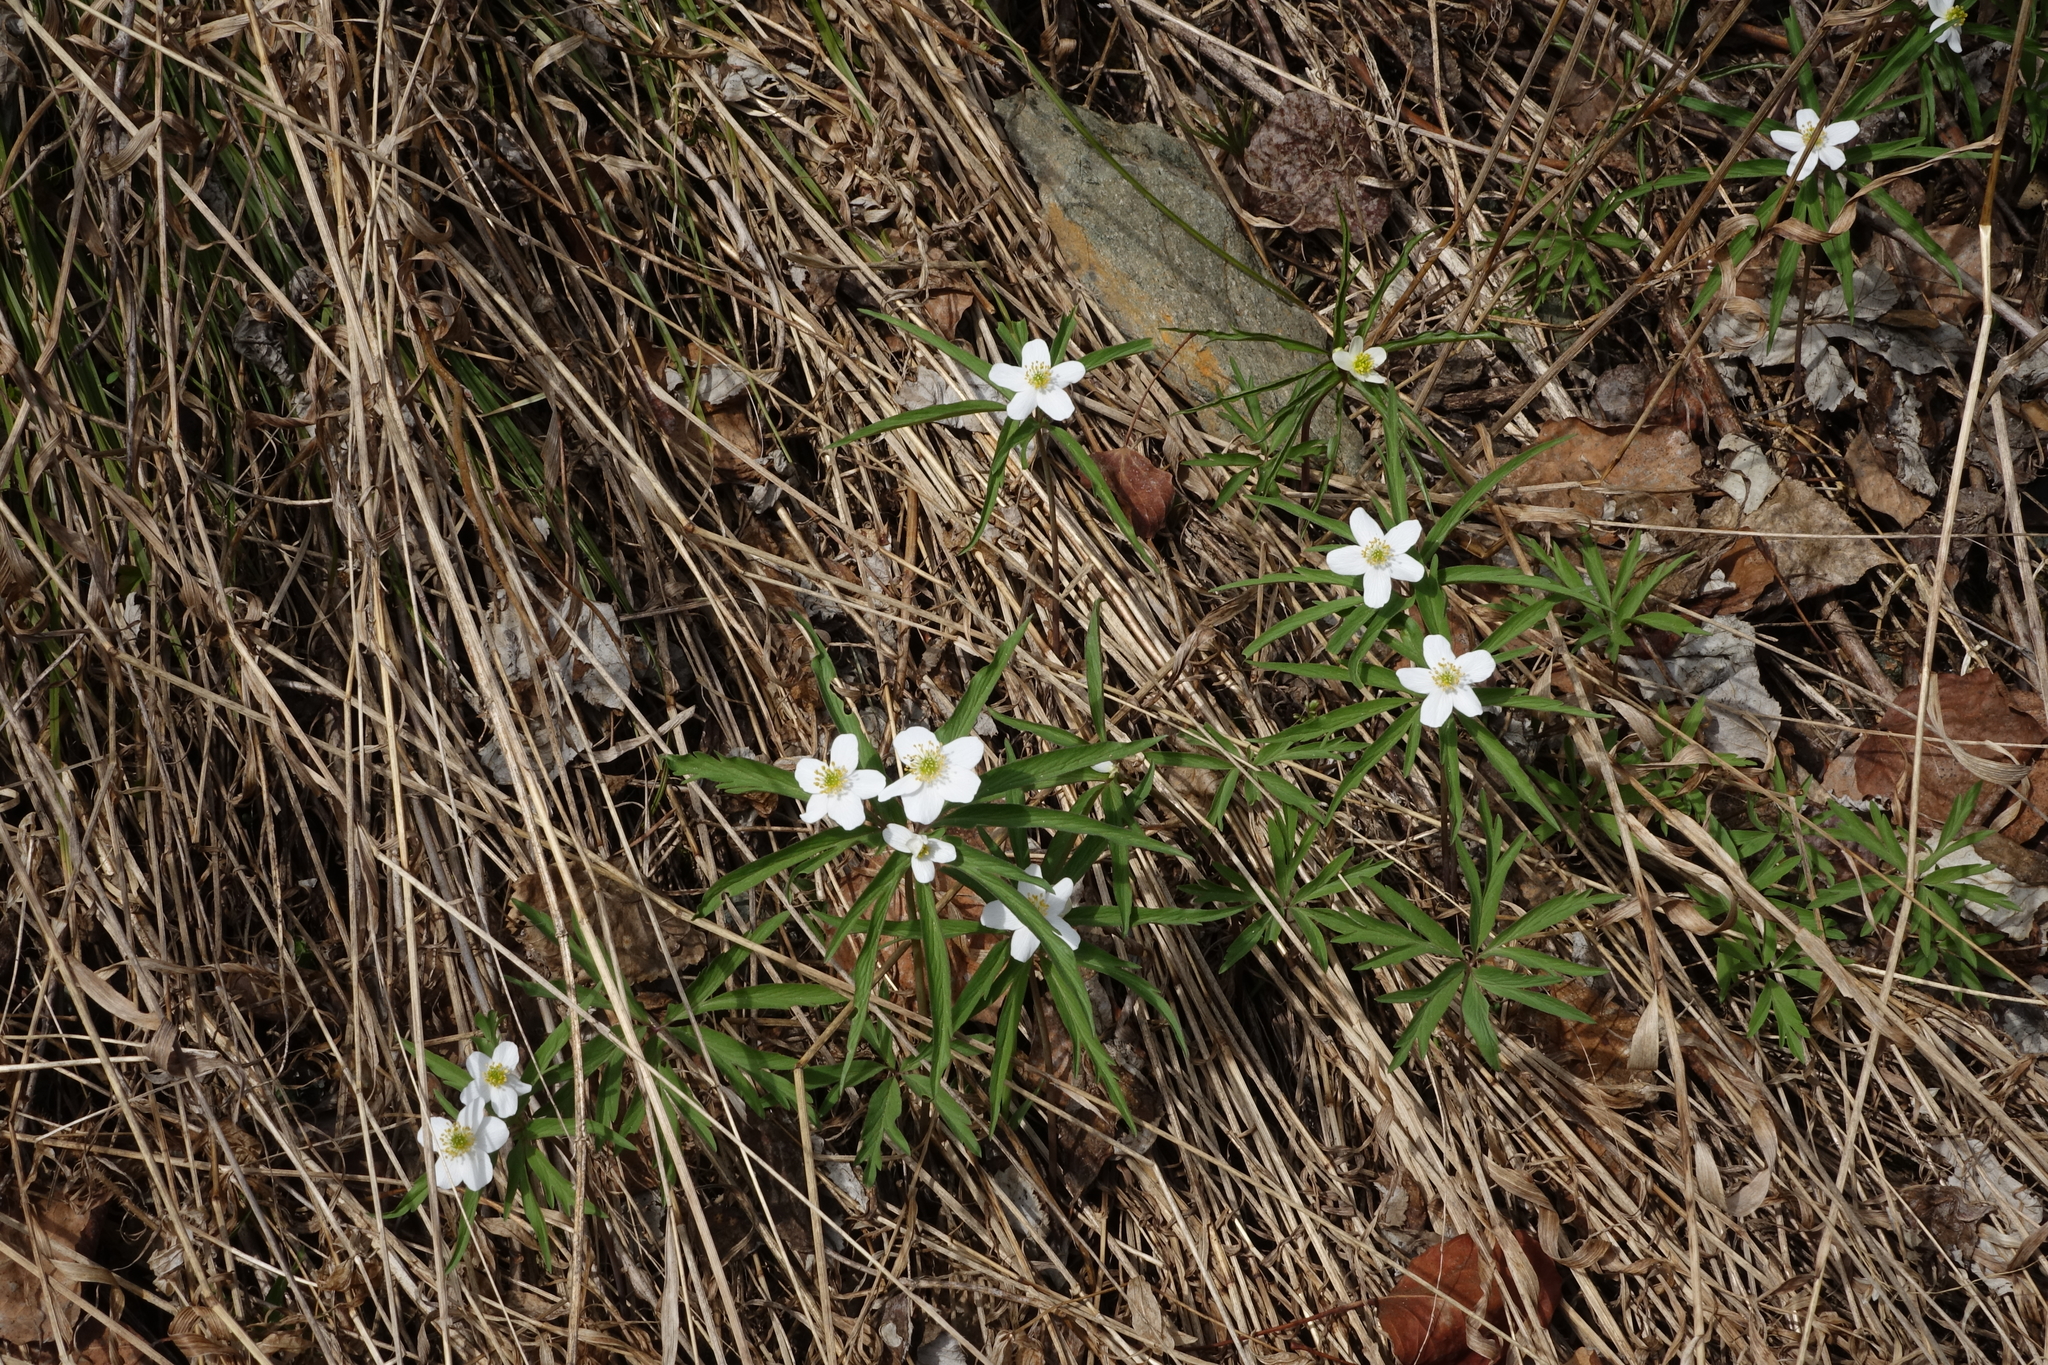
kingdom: Plantae
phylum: Tracheophyta
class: Magnoliopsida
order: Ranunculales
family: Ranunculaceae
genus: Anemone
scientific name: Anemone caerulea
